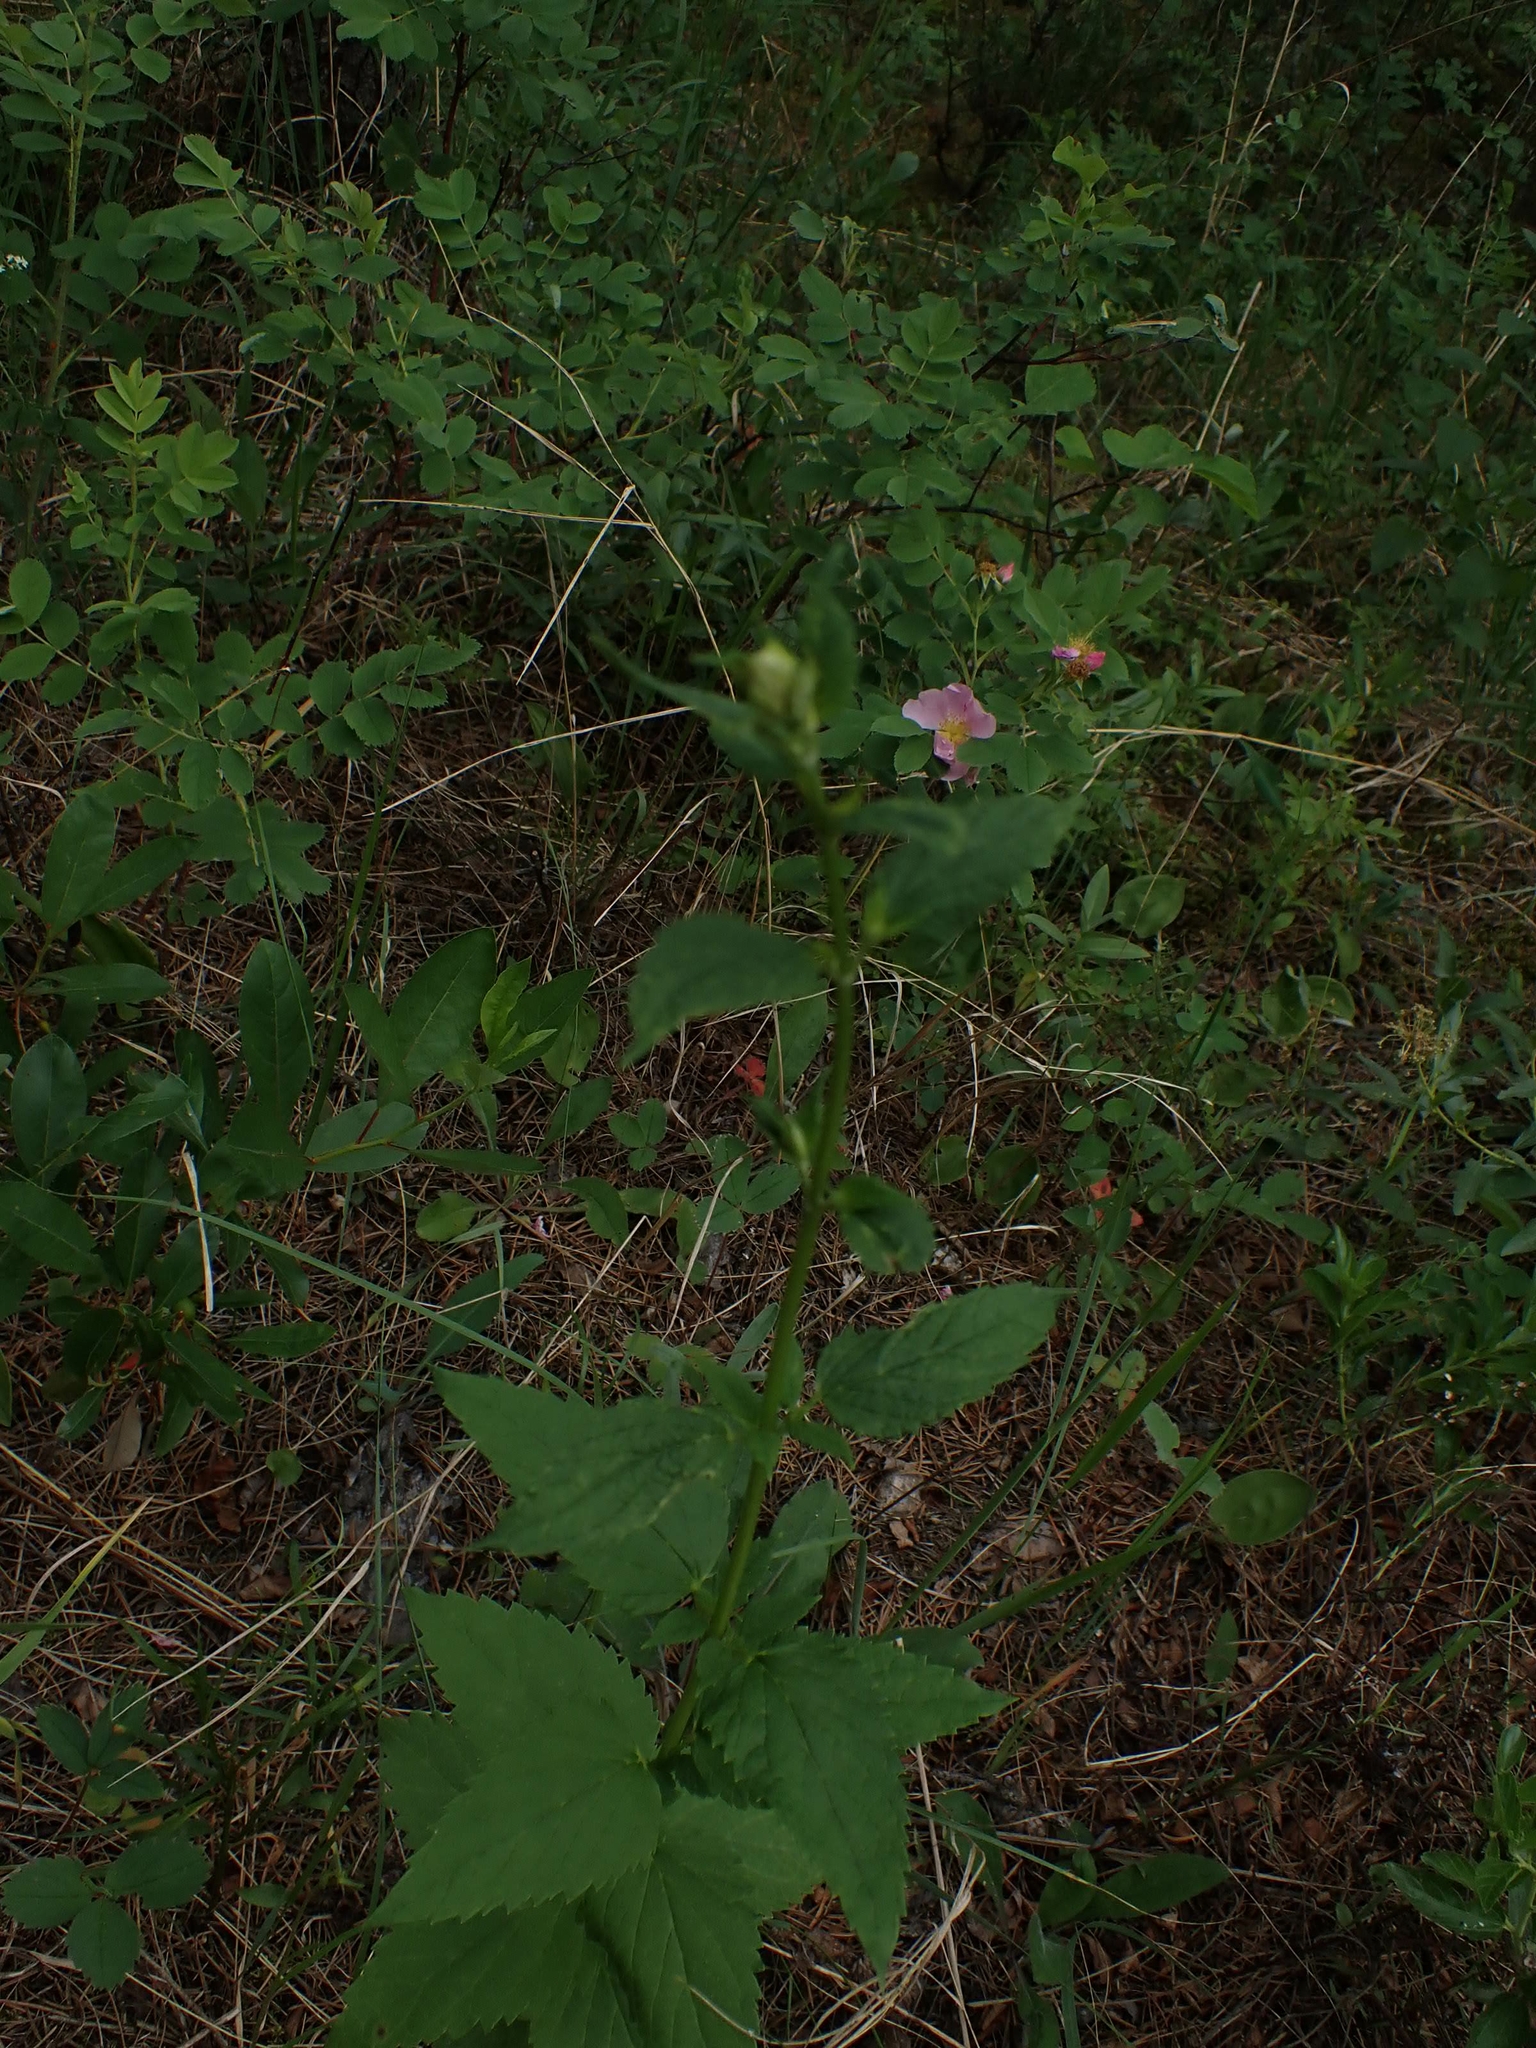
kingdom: Plantae
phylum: Tracheophyta
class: Magnoliopsida
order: Lamiales
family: Lamiaceae
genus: Agastache
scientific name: Agastache foeniculum
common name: Anise hyssop
